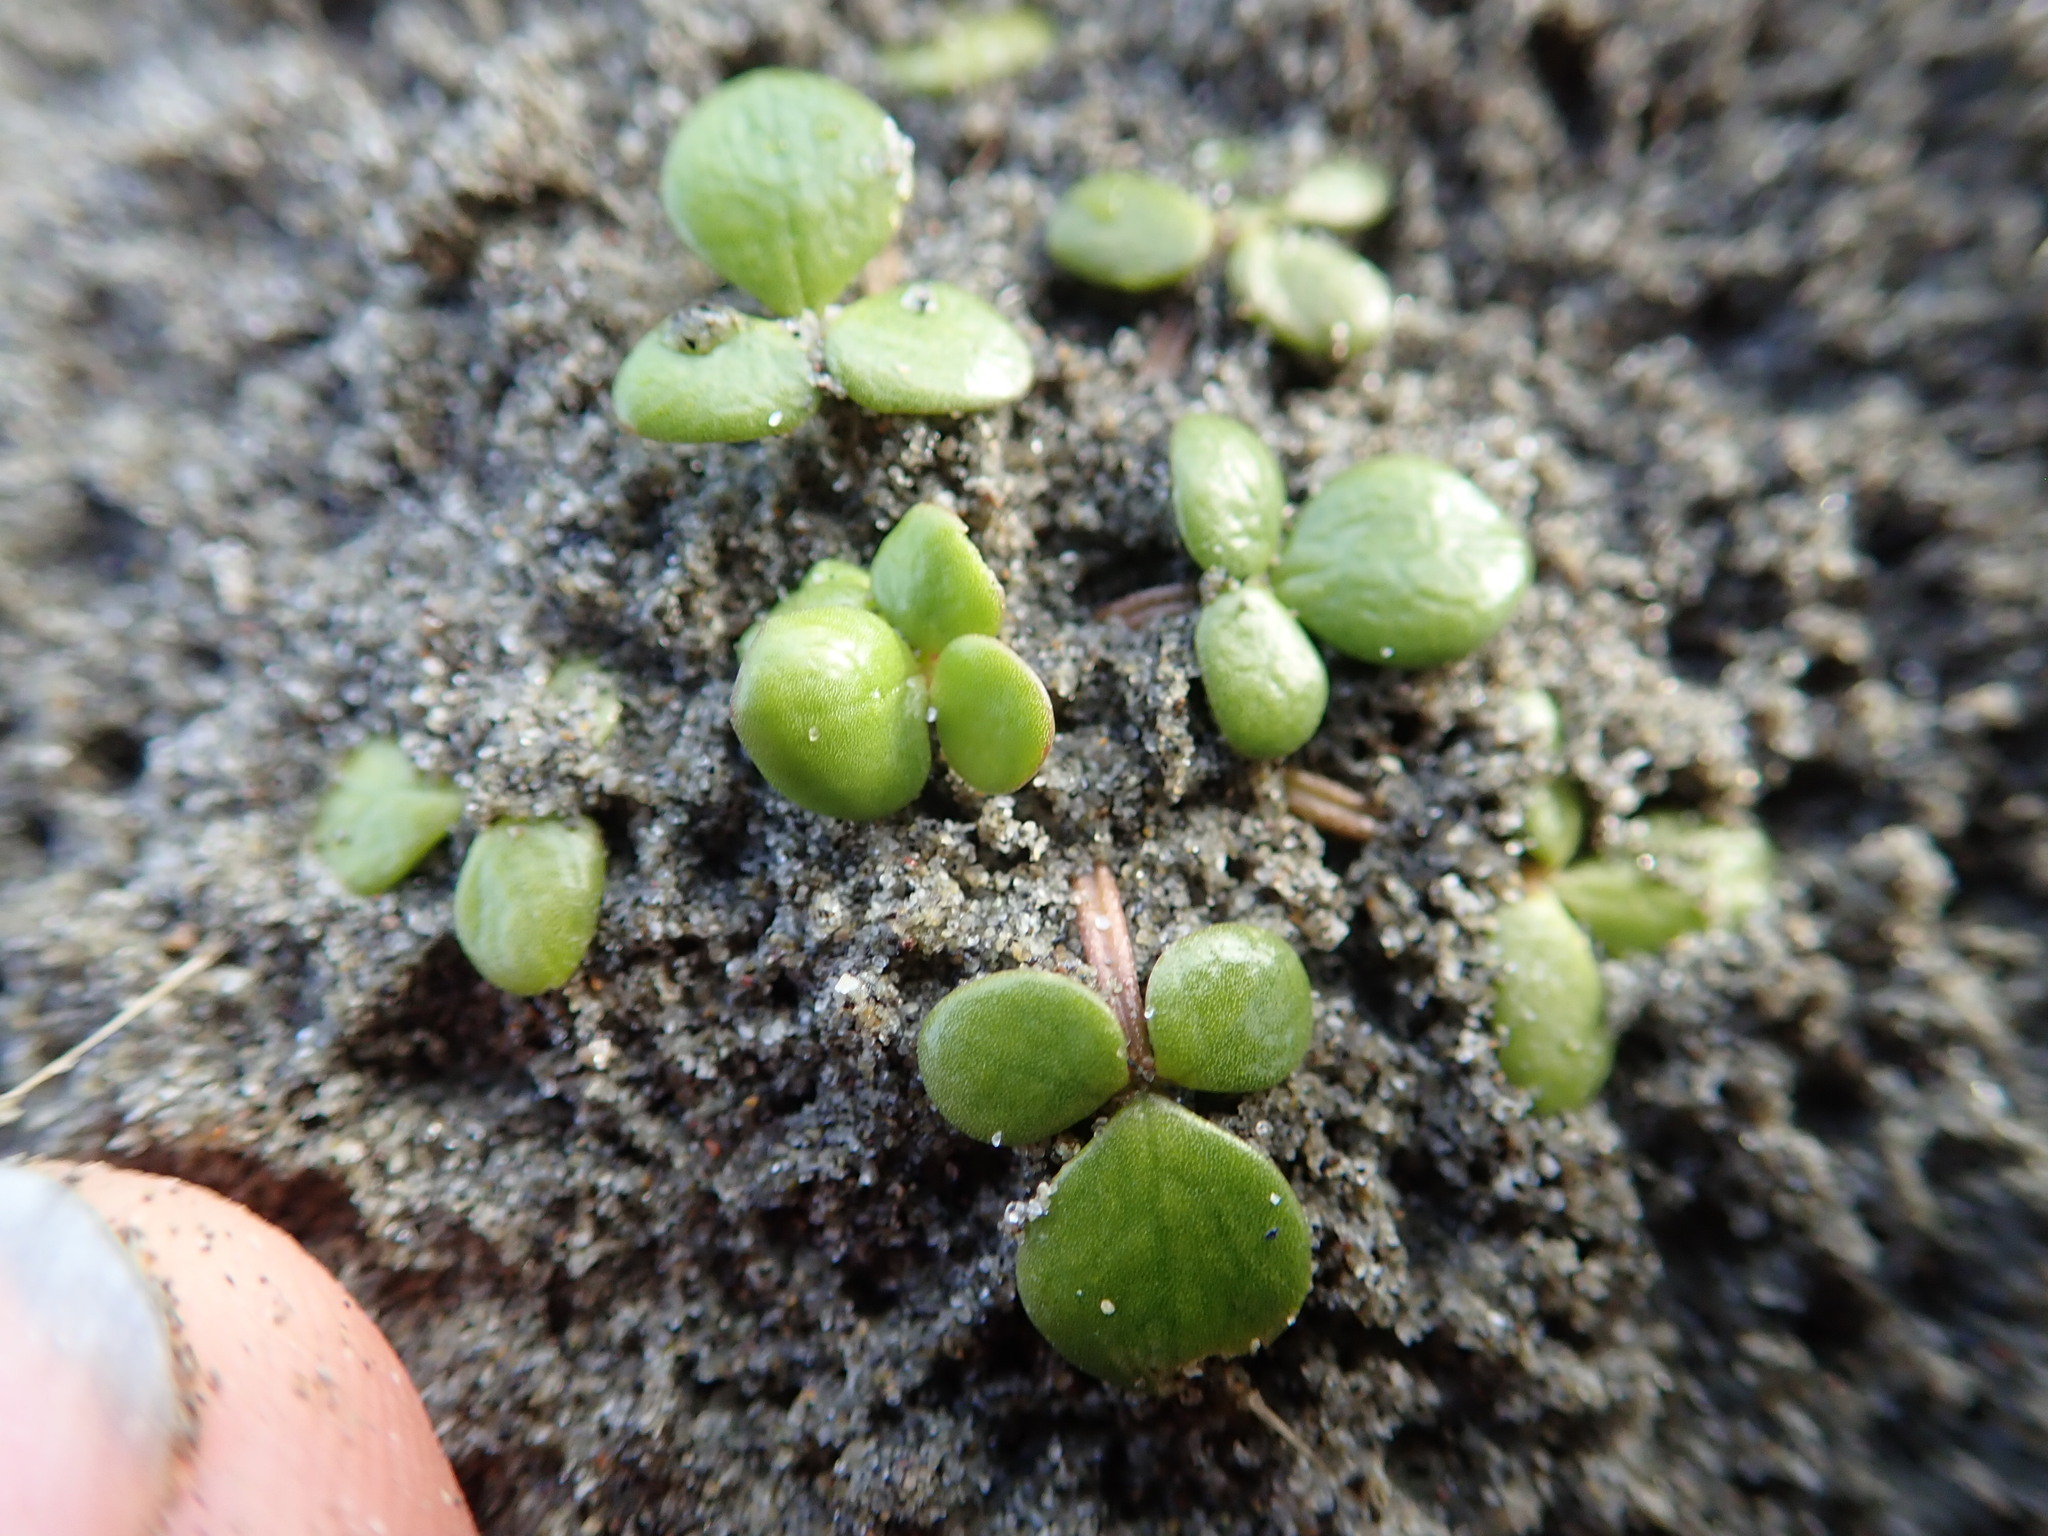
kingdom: Plantae
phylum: Tracheophyta
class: Magnoliopsida
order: Ranunculales
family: Ranunculaceae
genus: Ranunculus
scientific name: Ranunculus acaulis
